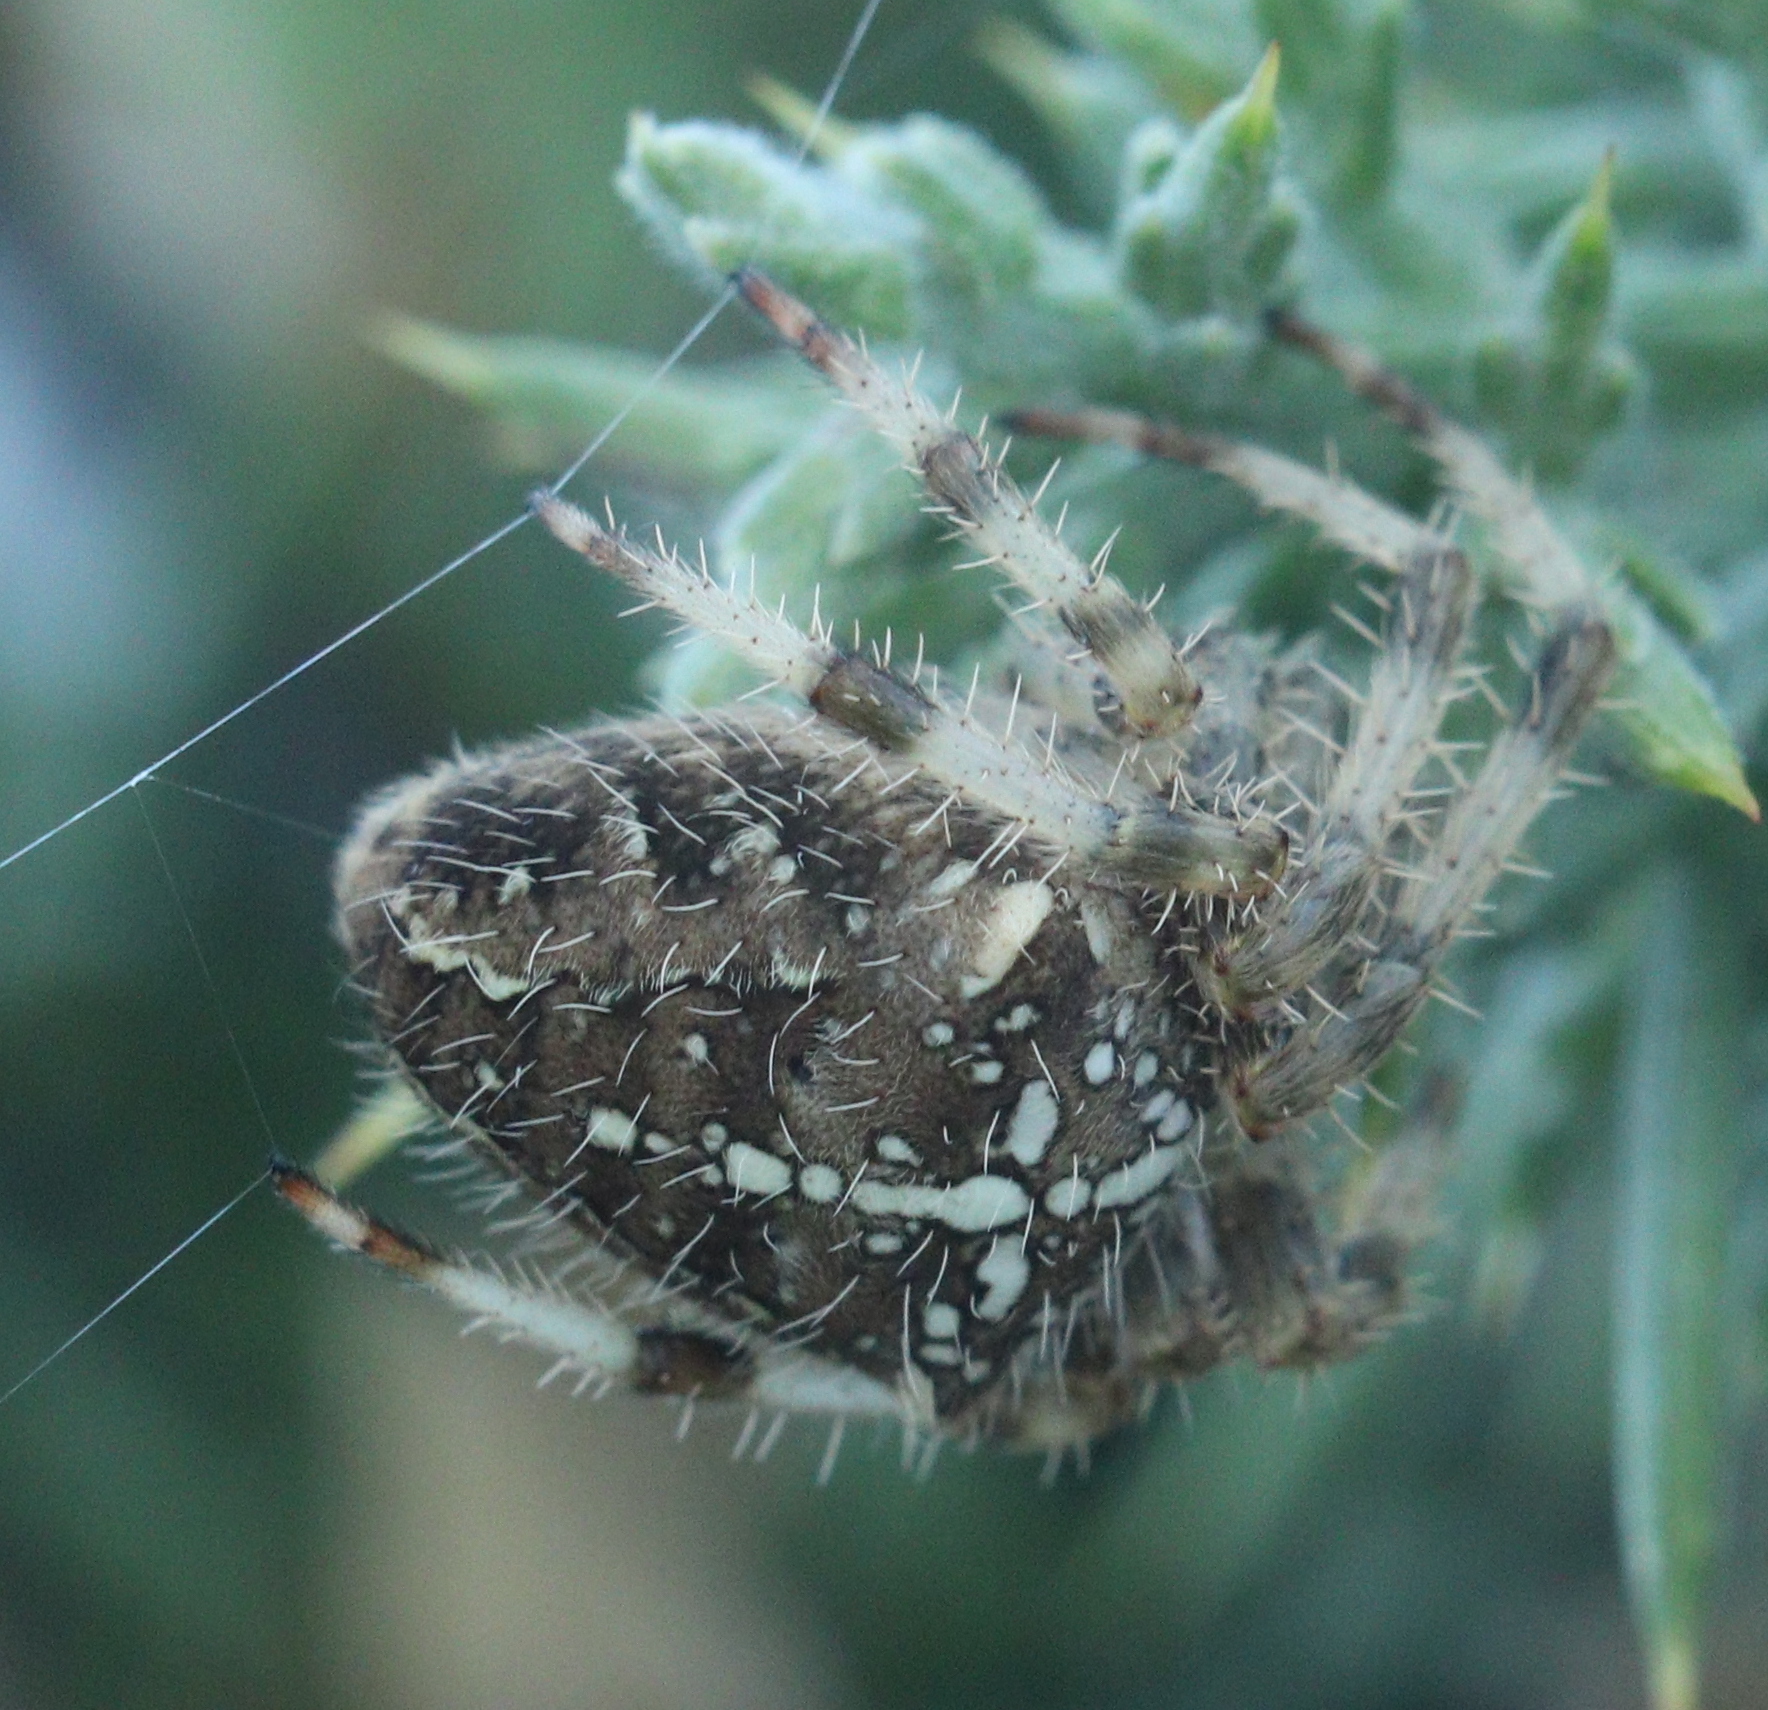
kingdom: Animalia
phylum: Arthropoda
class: Arachnida
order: Araneae
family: Araneidae
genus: Araneus
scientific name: Araneus diadematus
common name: Cross orbweaver
